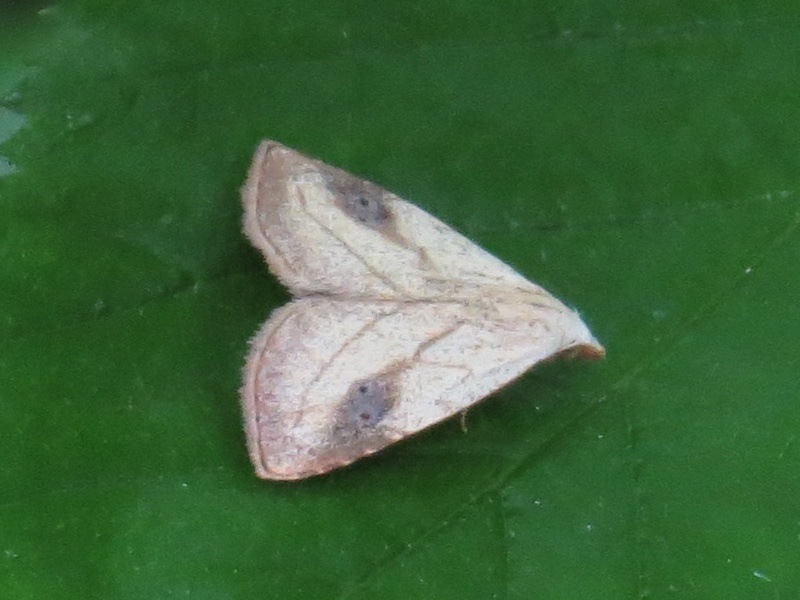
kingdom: Animalia
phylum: Arthropoda
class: Insecta
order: Lepidoptera
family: Erebidae
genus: Rivula
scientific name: Rivula propinqualis
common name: Spotted grass moth
